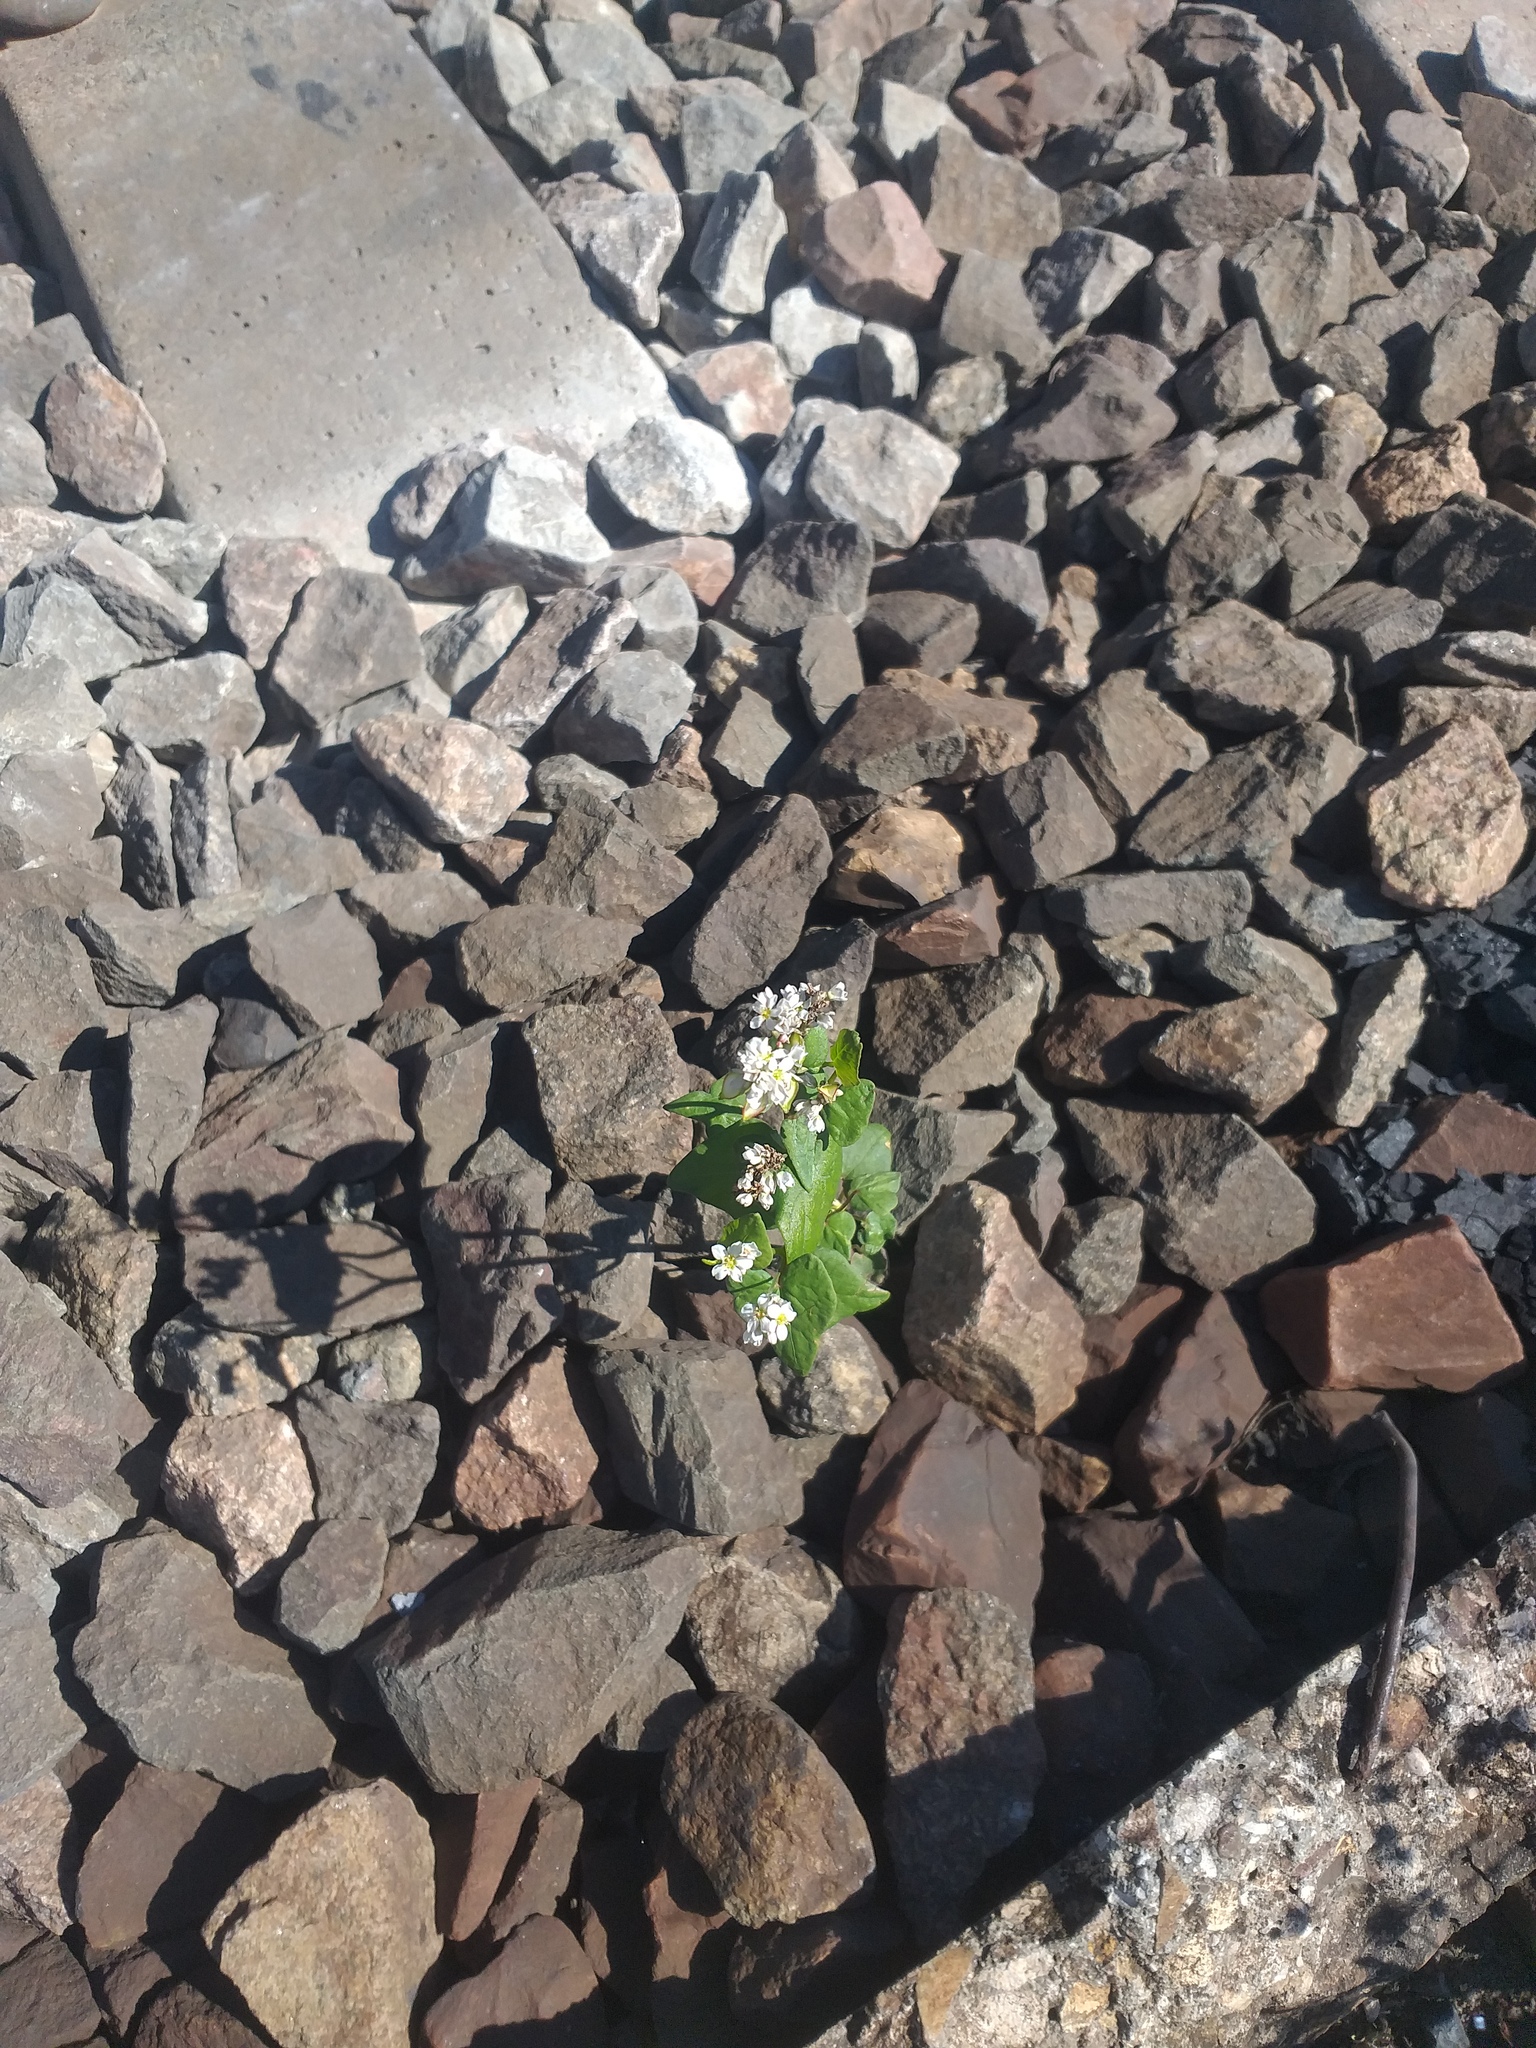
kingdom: Plantae
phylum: Tracheophyta
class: Magnoliopsida
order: Caryophyllales
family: Polygonaceae
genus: Fagopyrum
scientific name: Fagopyrum esculentum
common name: Buckwheat
